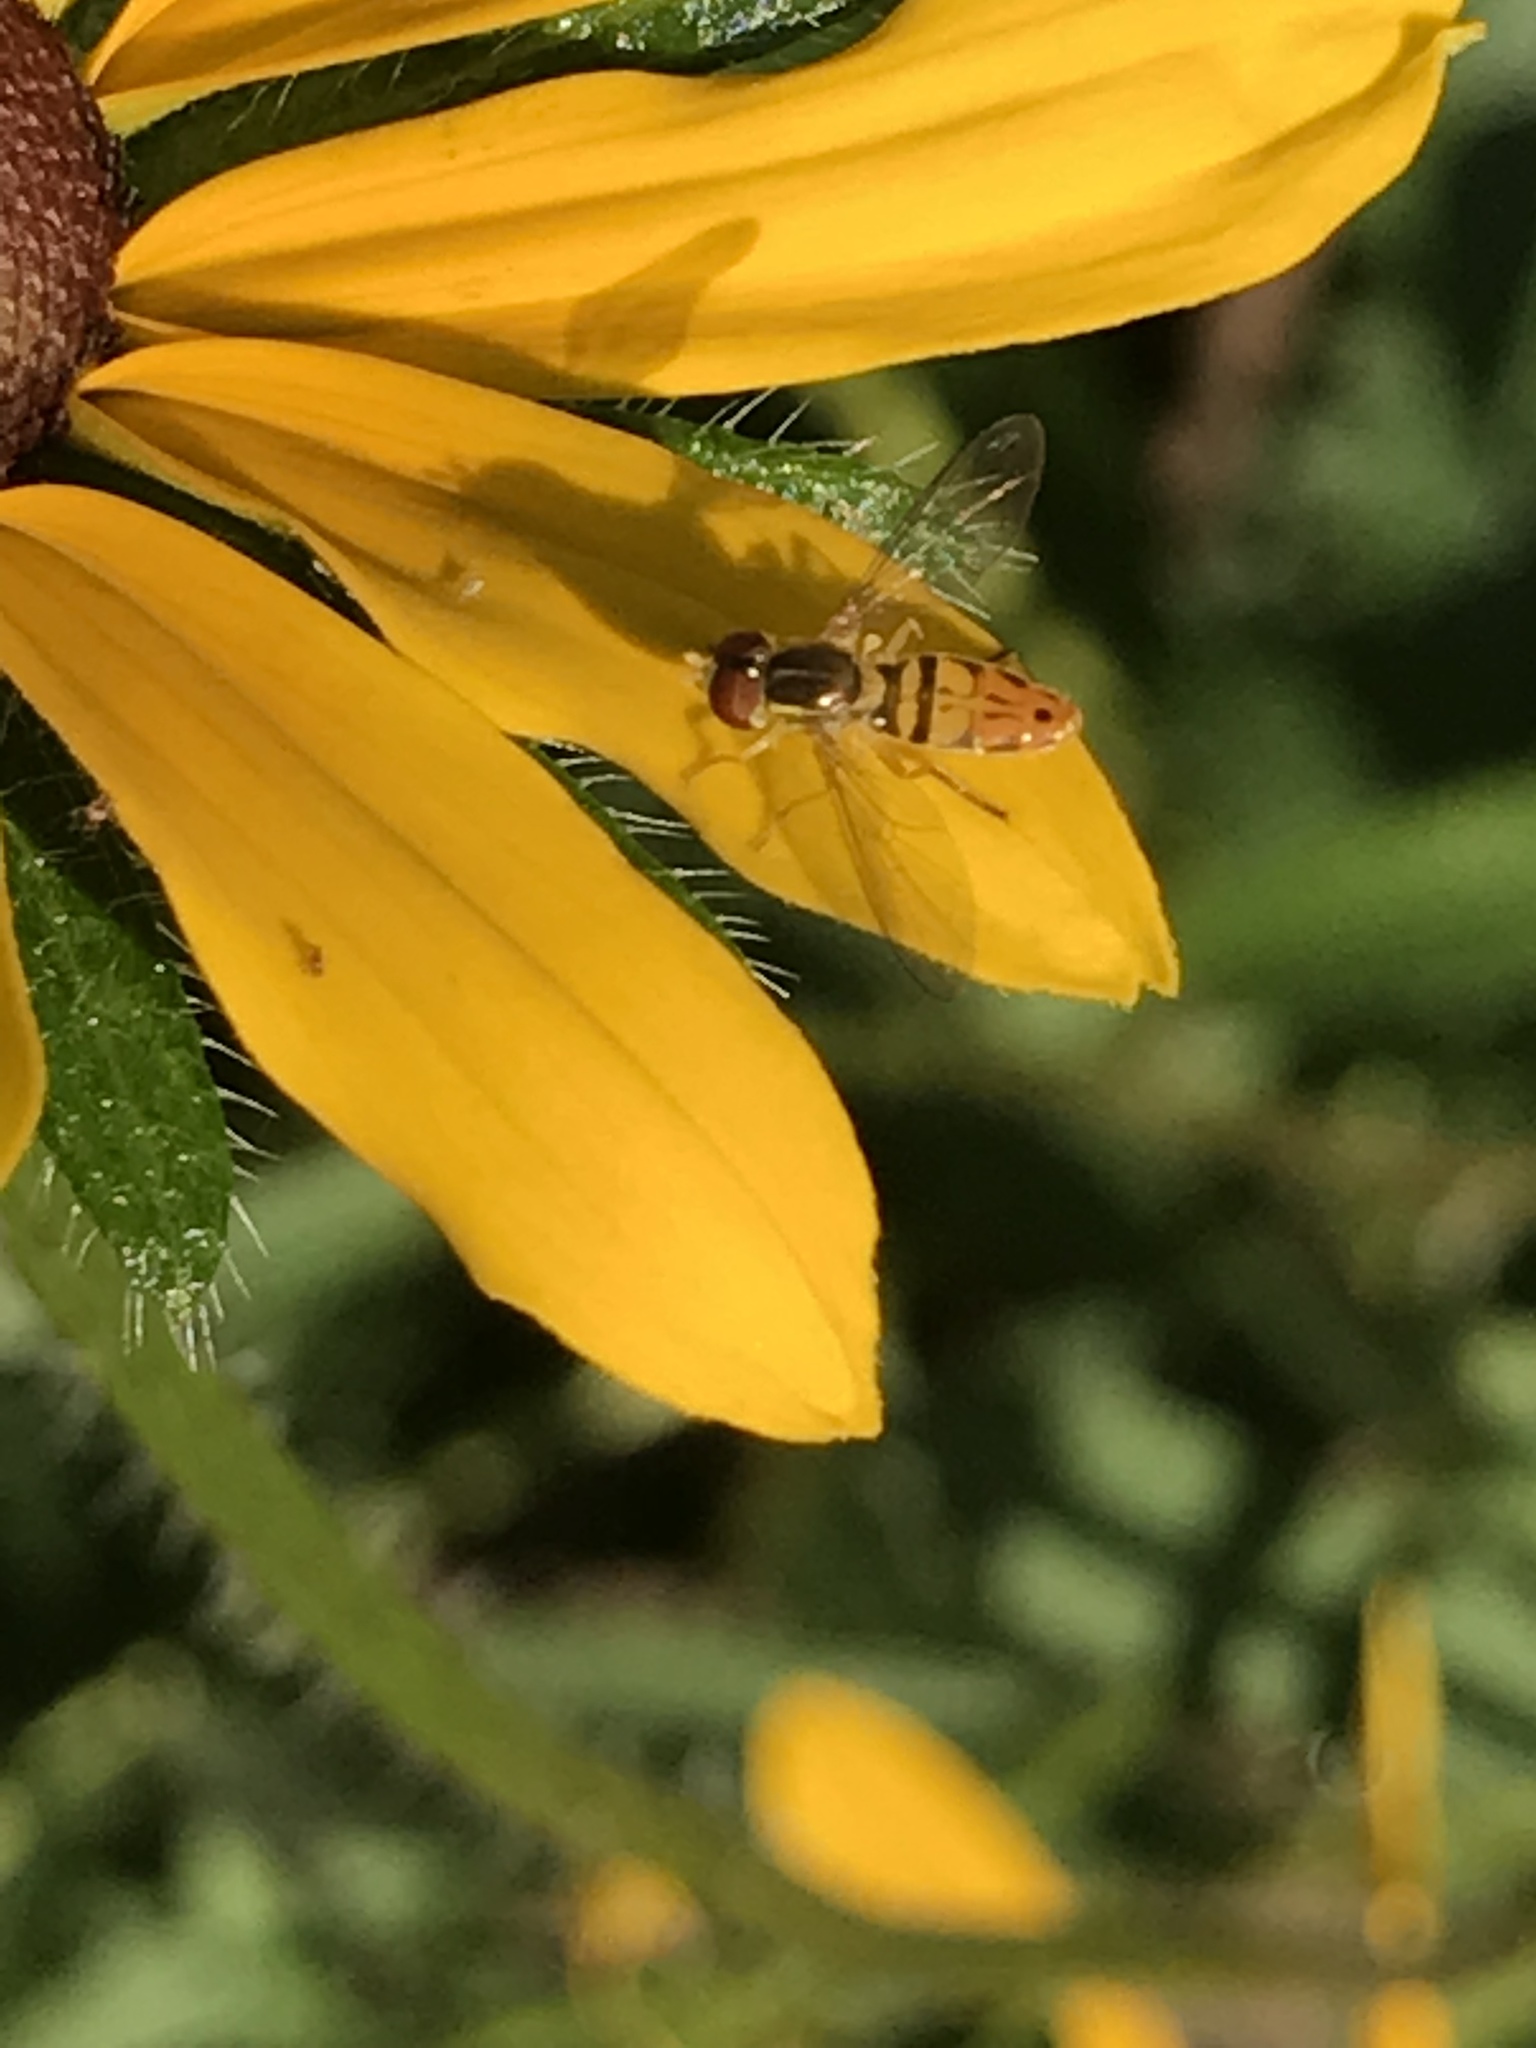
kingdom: Animalia
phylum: Arthropoda
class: Insecta
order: Diptera
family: Syrphidae
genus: Toxomerus
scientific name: Toxomerus marginatus
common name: Syrphid fly
